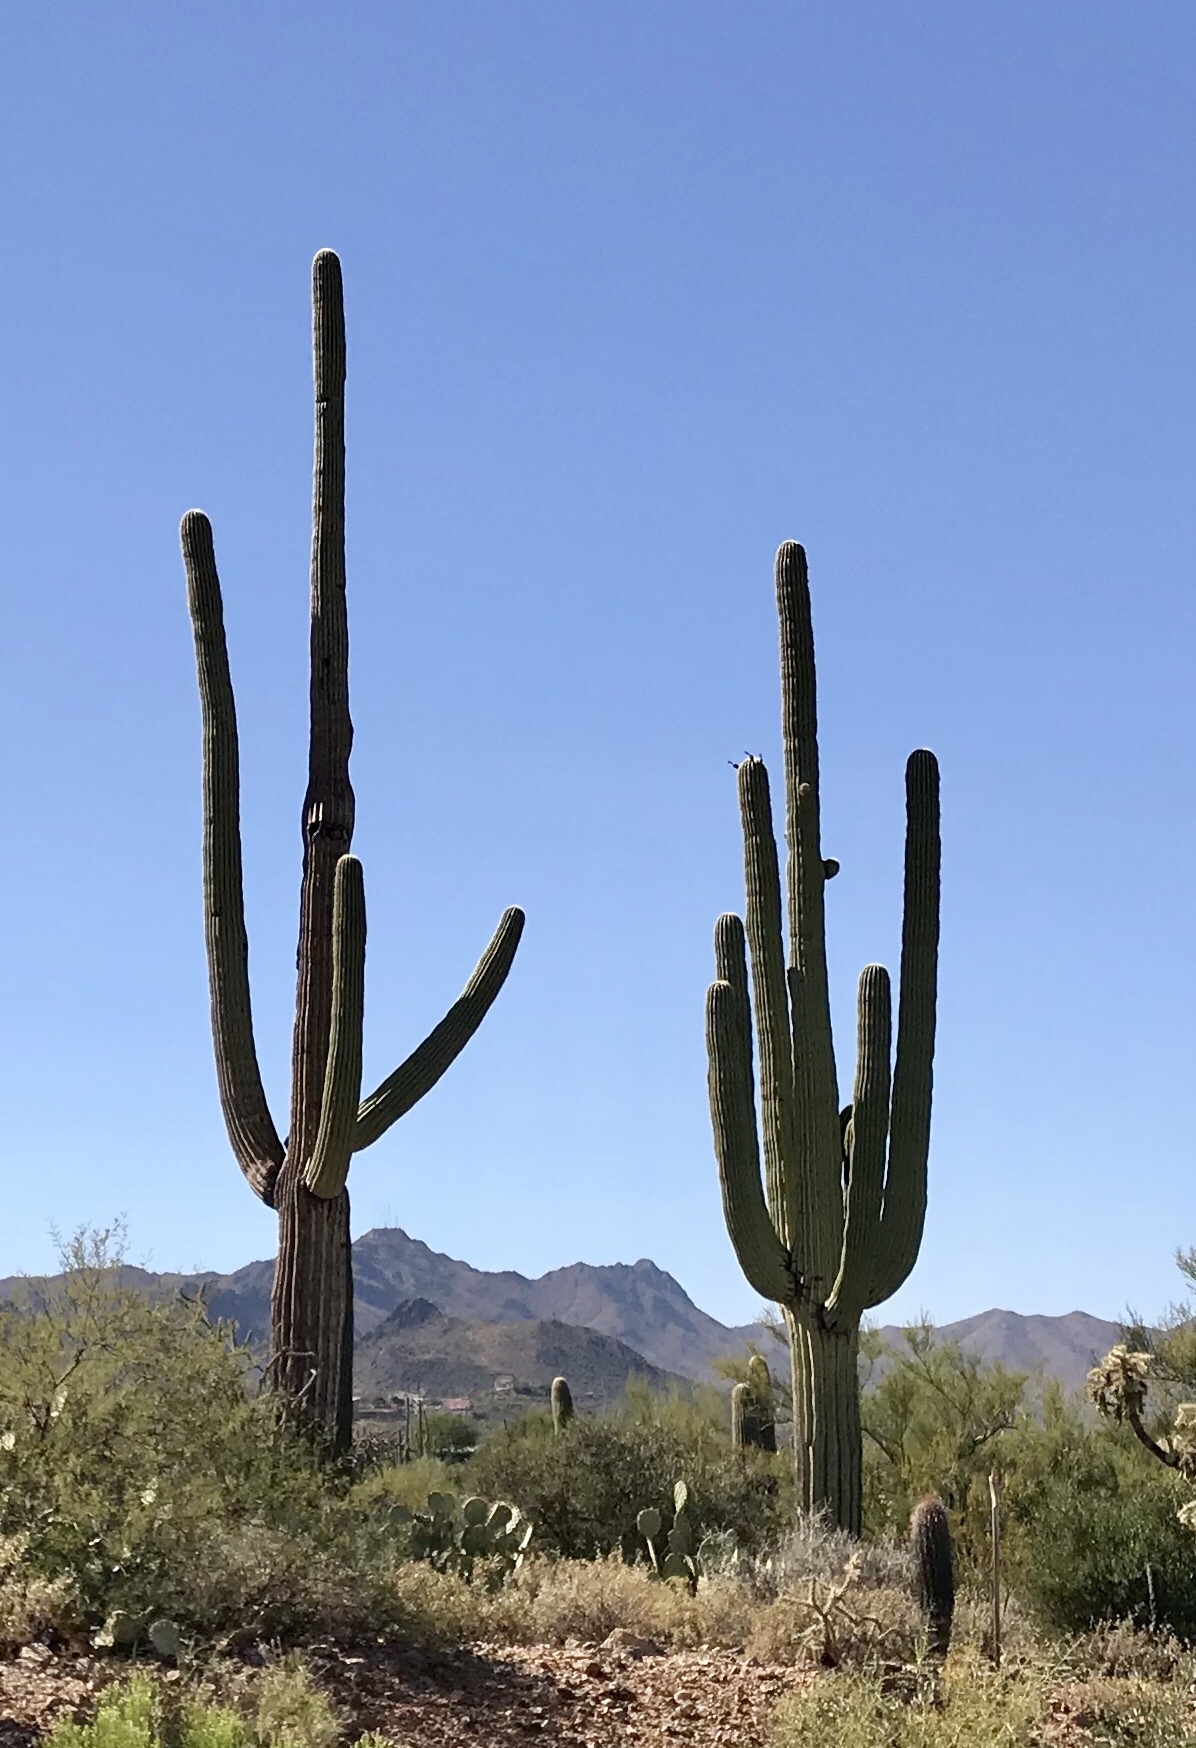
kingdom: Plantae
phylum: Tracheophyta
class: Magnoliopsida
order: Caryophyllales
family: Cactaceae
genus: Carnegiea
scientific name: Carnegiea gigantea
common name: Saguaro
